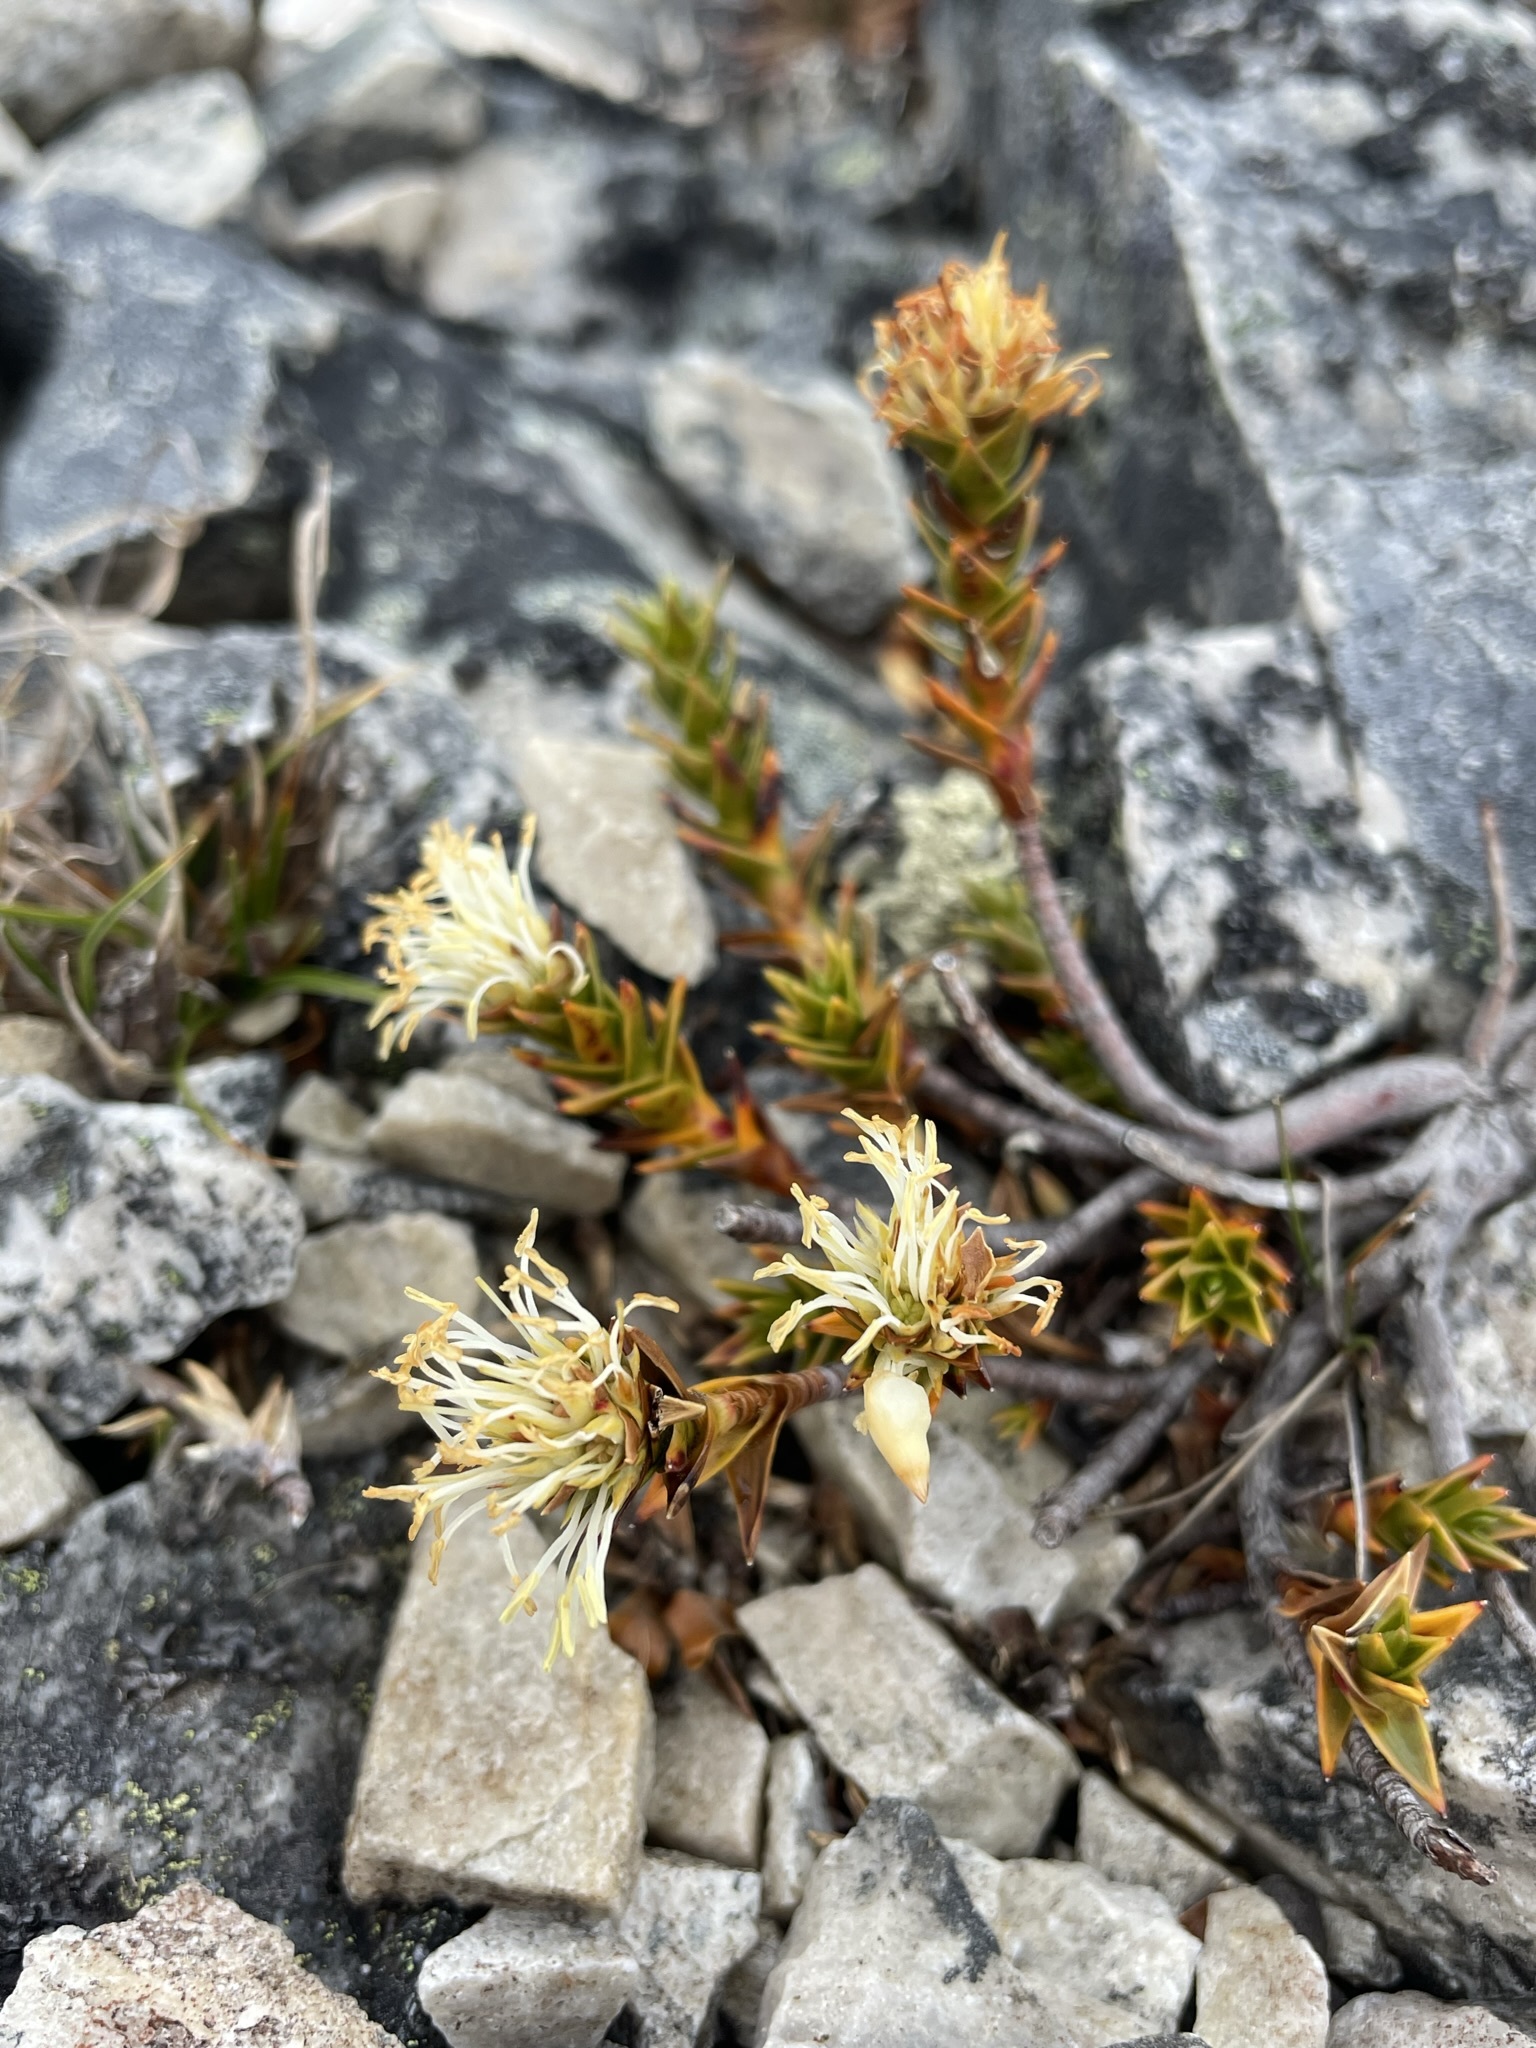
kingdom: Plantae
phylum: Tracheophyta
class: Magnoliopsida
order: Ericales
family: Ericaceae
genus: Dracophyllum
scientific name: Dracophyllum sprengelioides
